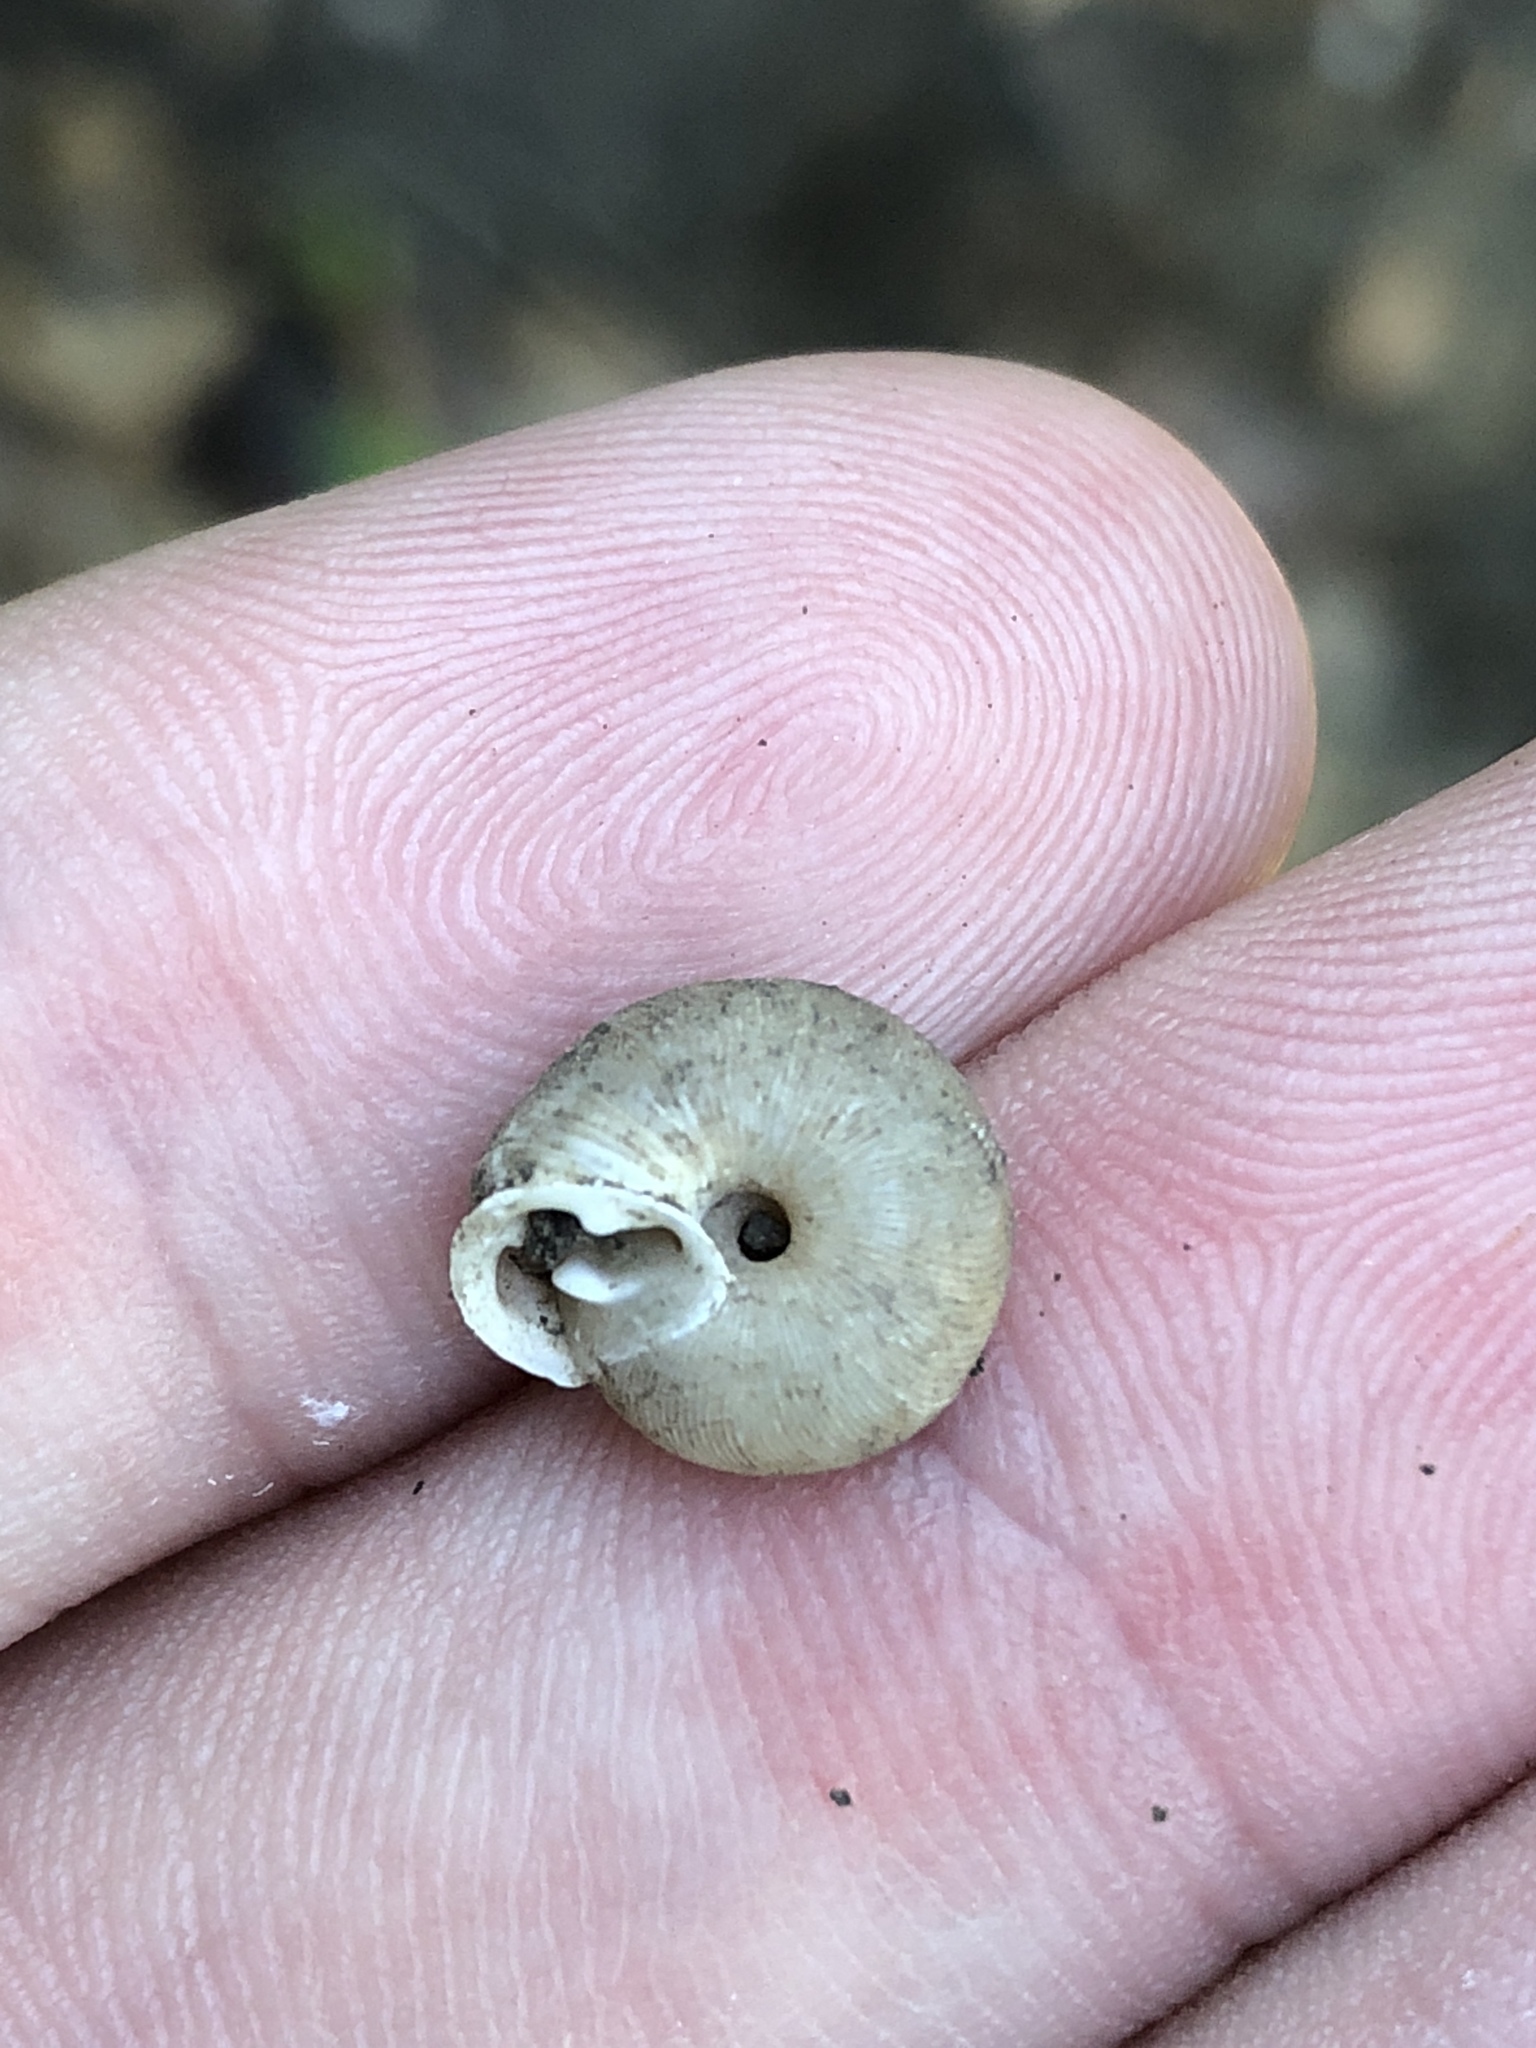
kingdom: Animalia
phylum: Mollusca
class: Gastropoda
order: Stylommatophora
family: Polygyridae
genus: Triodopsis
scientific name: Triodopsis hopetonensis
